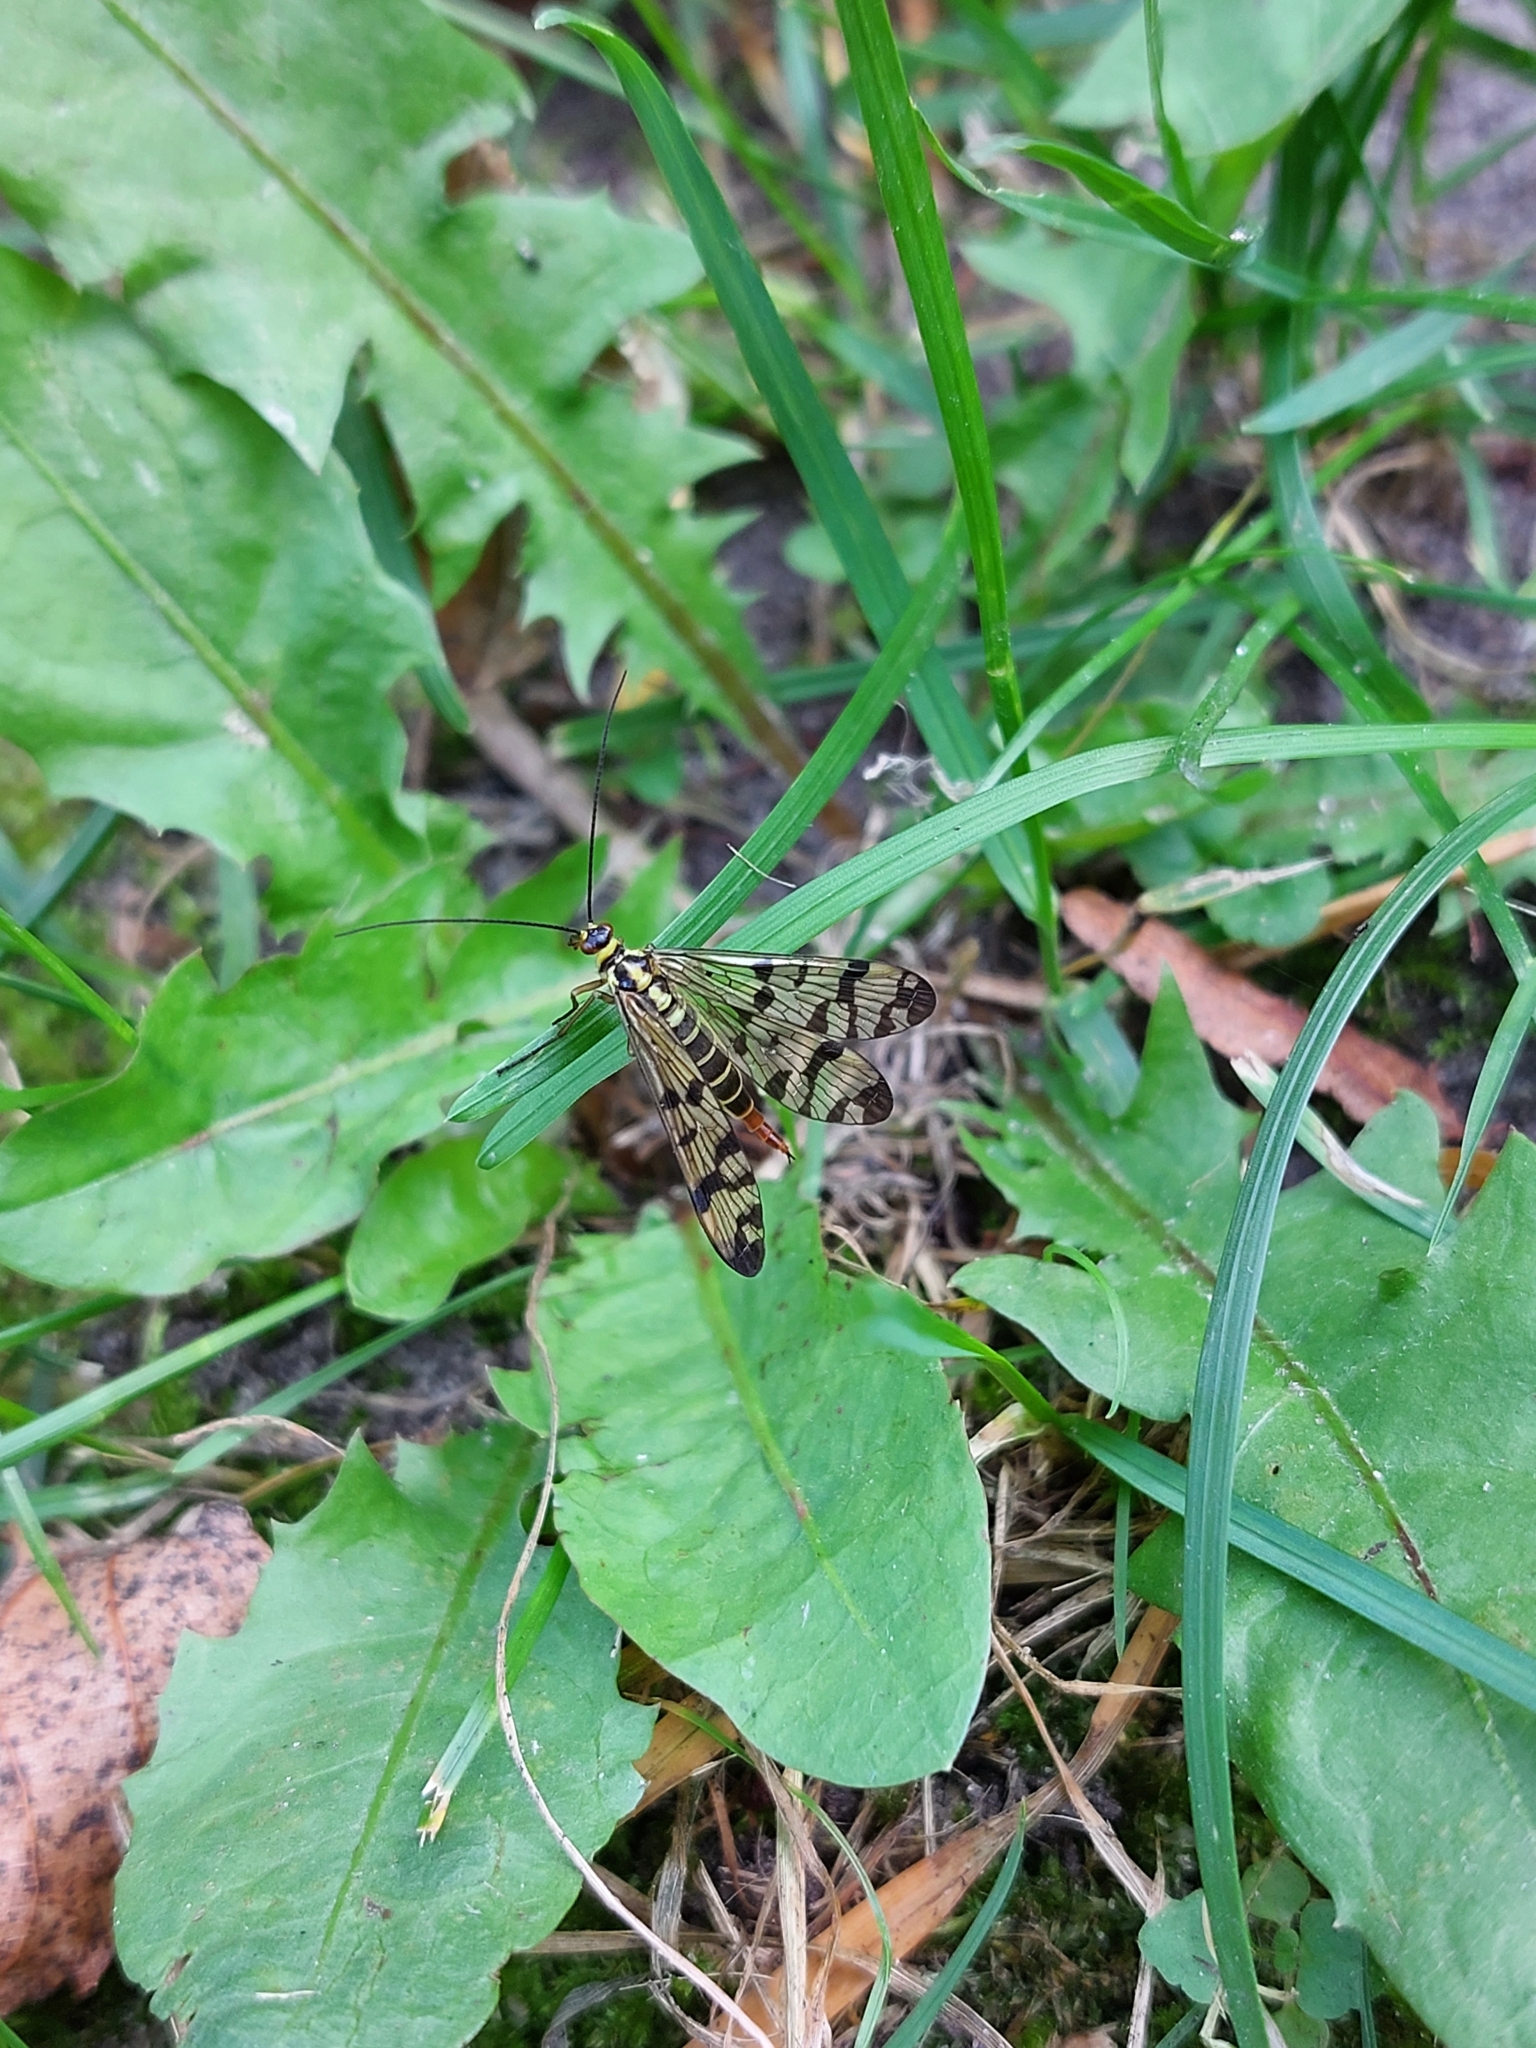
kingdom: Animalia
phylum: Arthropoda
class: Insecta
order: Mecoptera
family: Panorpidae
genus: Panorpa
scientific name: Panorpa communis
